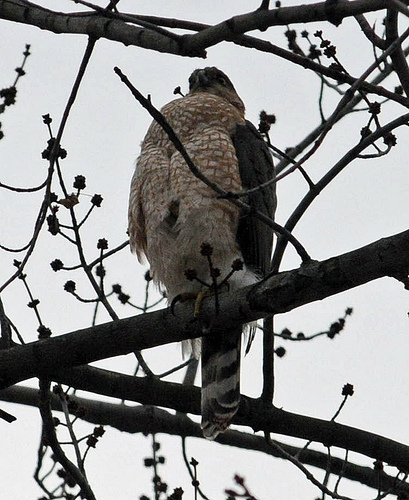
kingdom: Animalia
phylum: Chordata
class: Aves
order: Accipitriformes
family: Accipitridae
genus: Accipiter
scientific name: Accipiter cooperii
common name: Cooper's hawk
